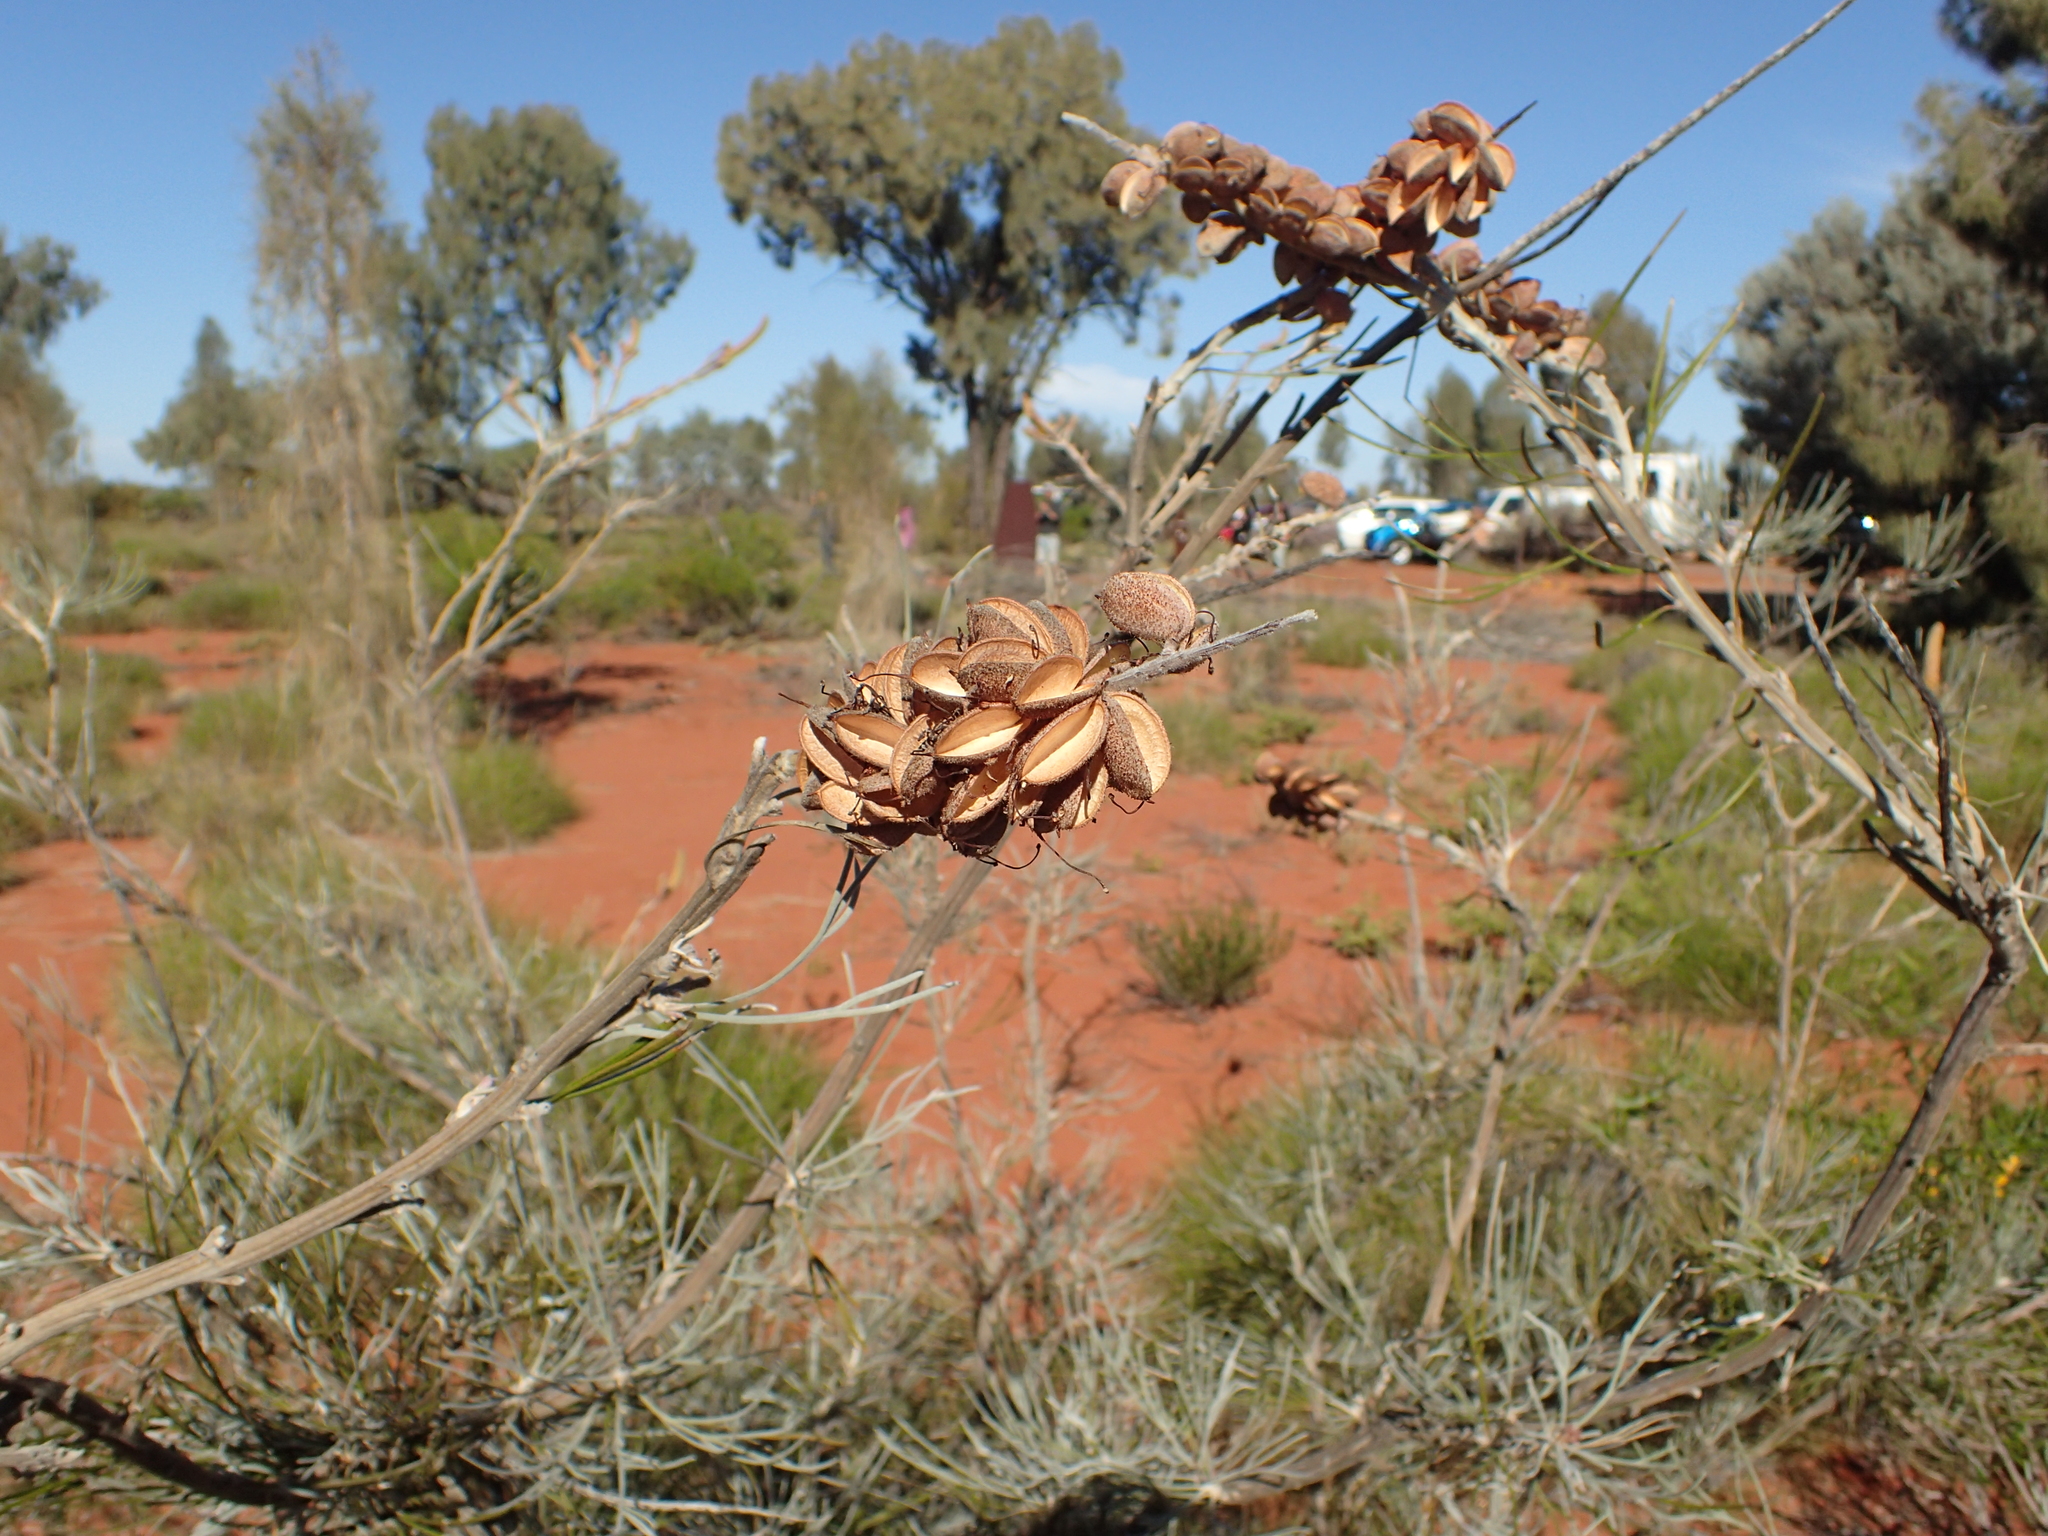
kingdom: Plantae
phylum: Tracheophyta
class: Magnoliopsida
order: Proteales
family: Proteaceae
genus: Grevillea
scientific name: Grevillea eriostachya
